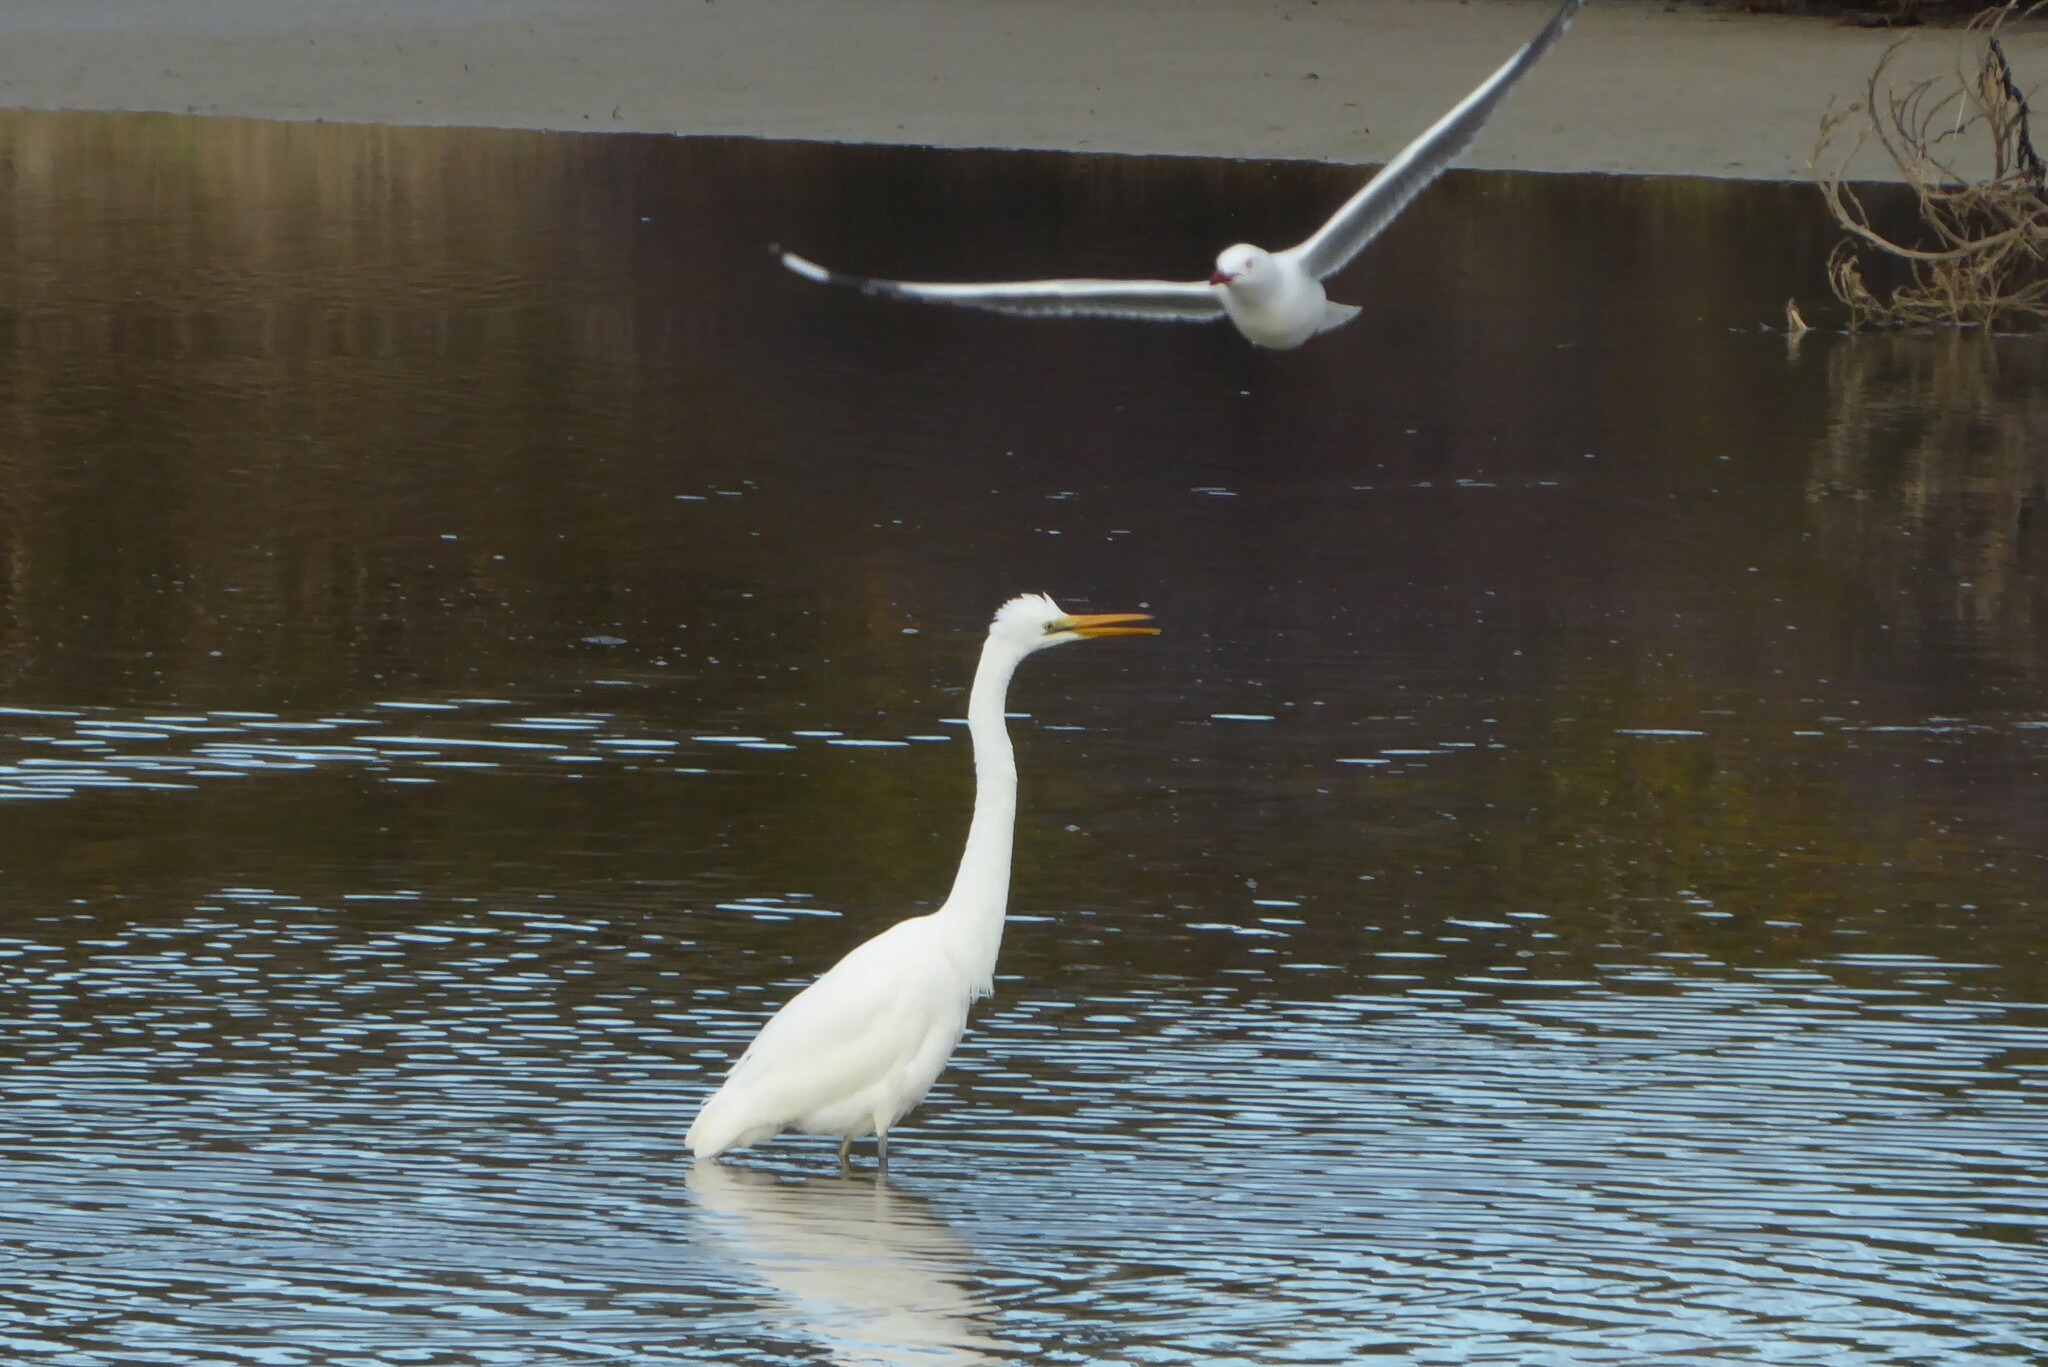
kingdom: Animalia
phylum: Chordata
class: Aves
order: Pelecaniformes
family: Ardeidae
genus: Ardea
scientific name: Ardea modesta
